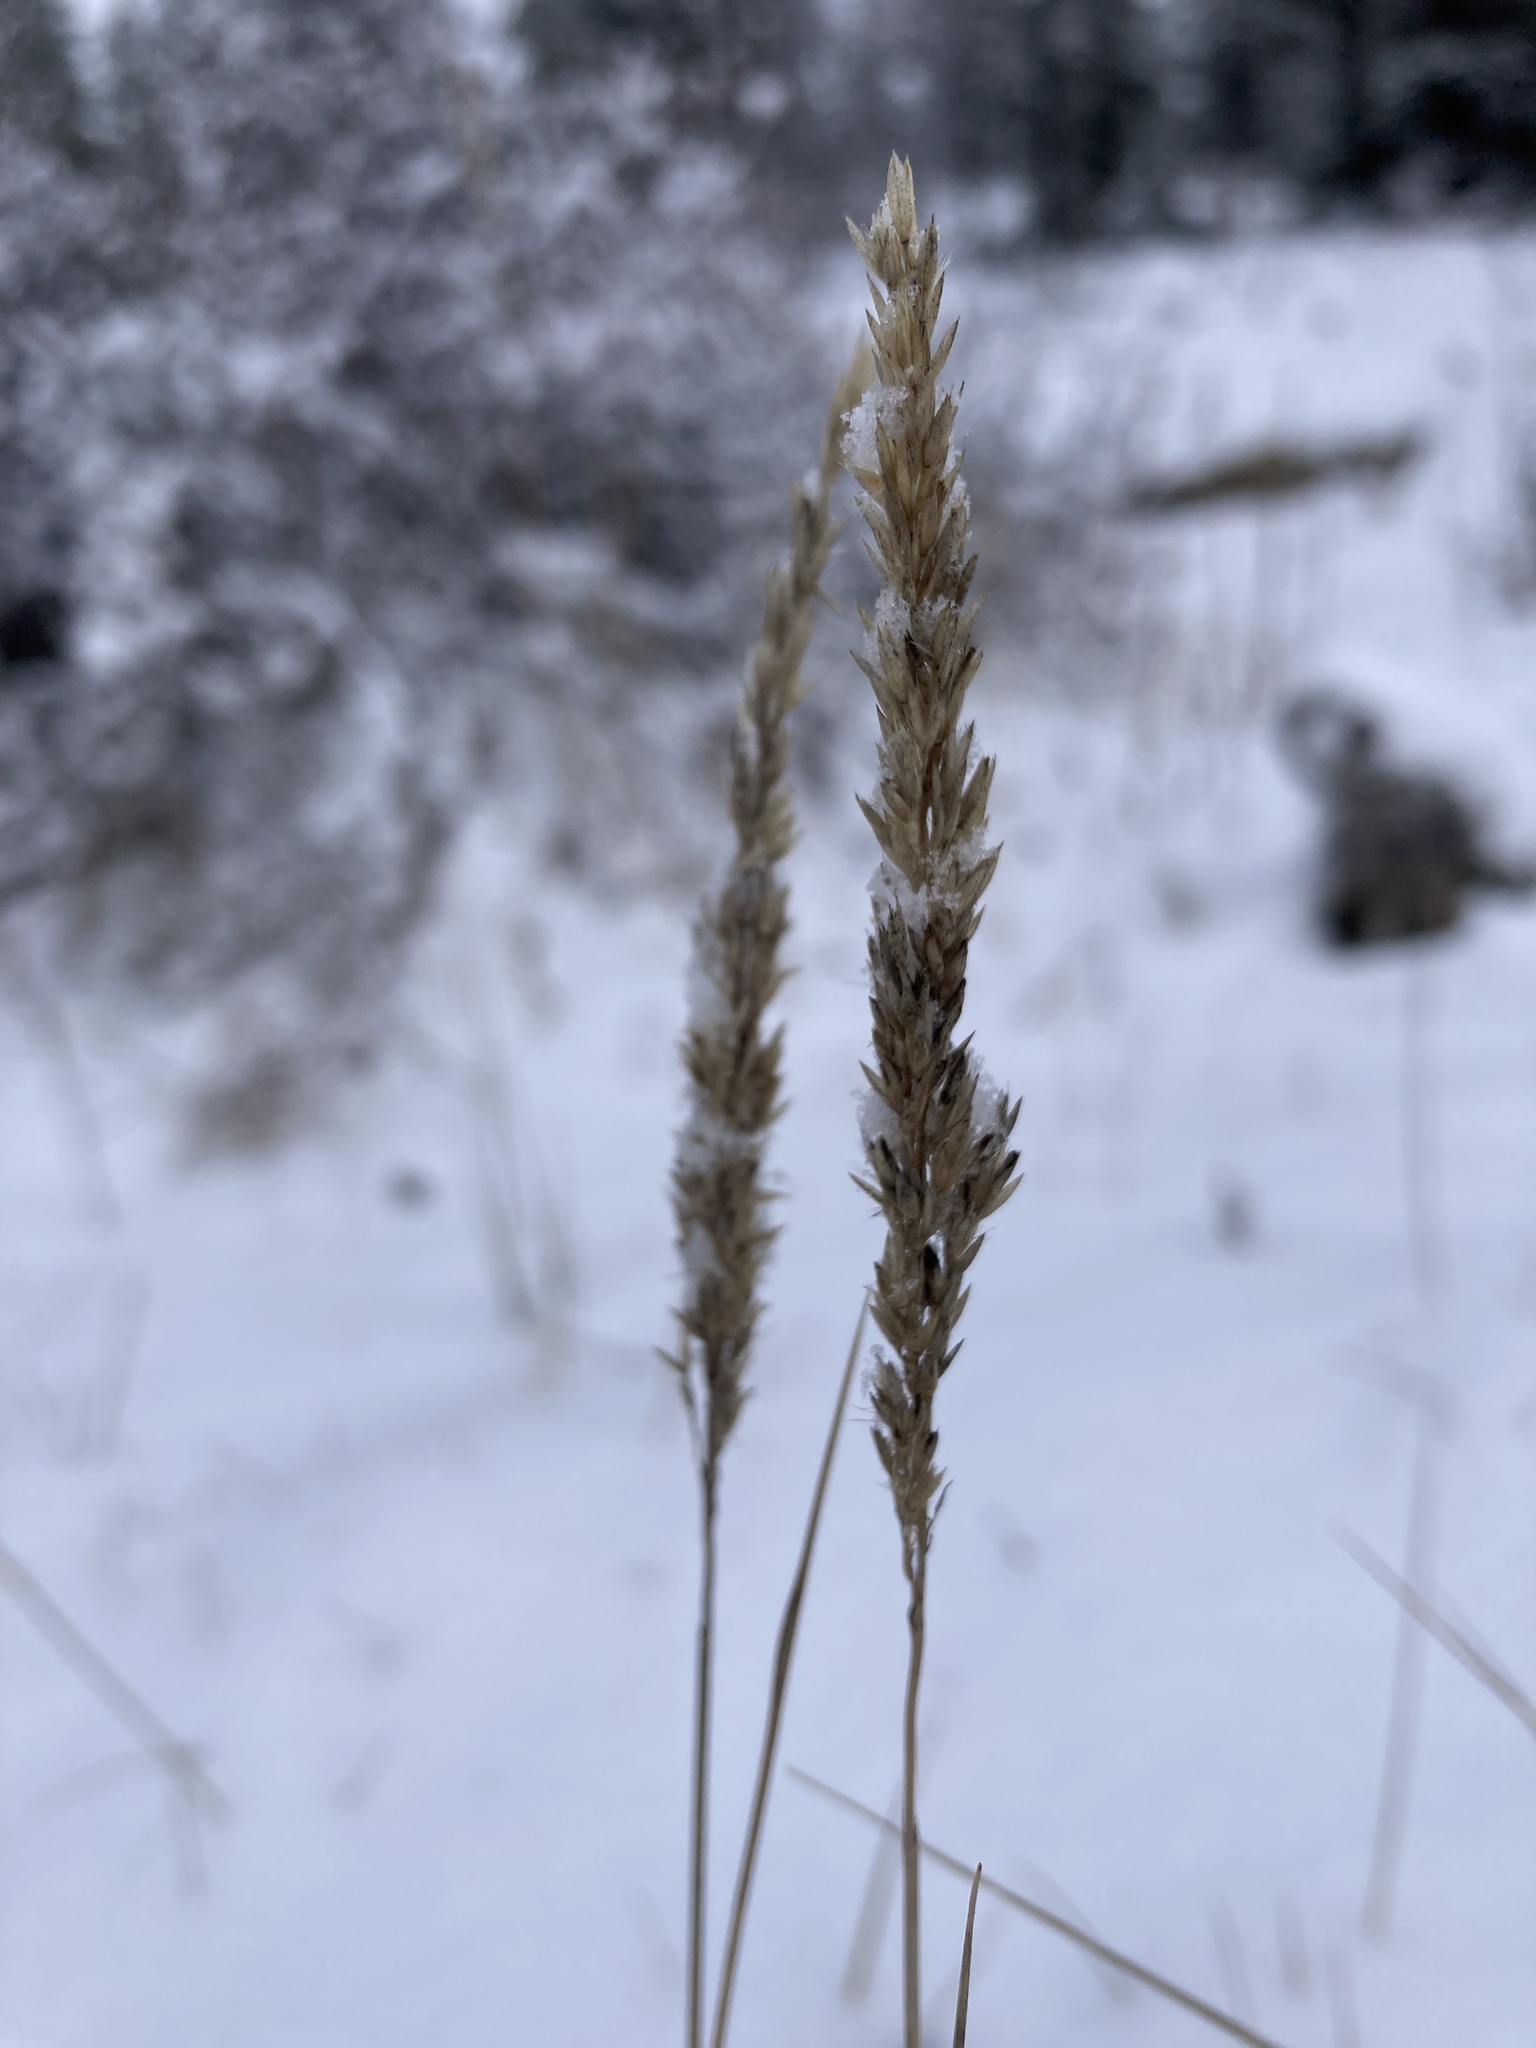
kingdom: Plantae
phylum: Tracheophyta
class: Liliopsida
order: Poales
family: Poaceae
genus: Leymus
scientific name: Leymus innovatus
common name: Boreal wild rye
